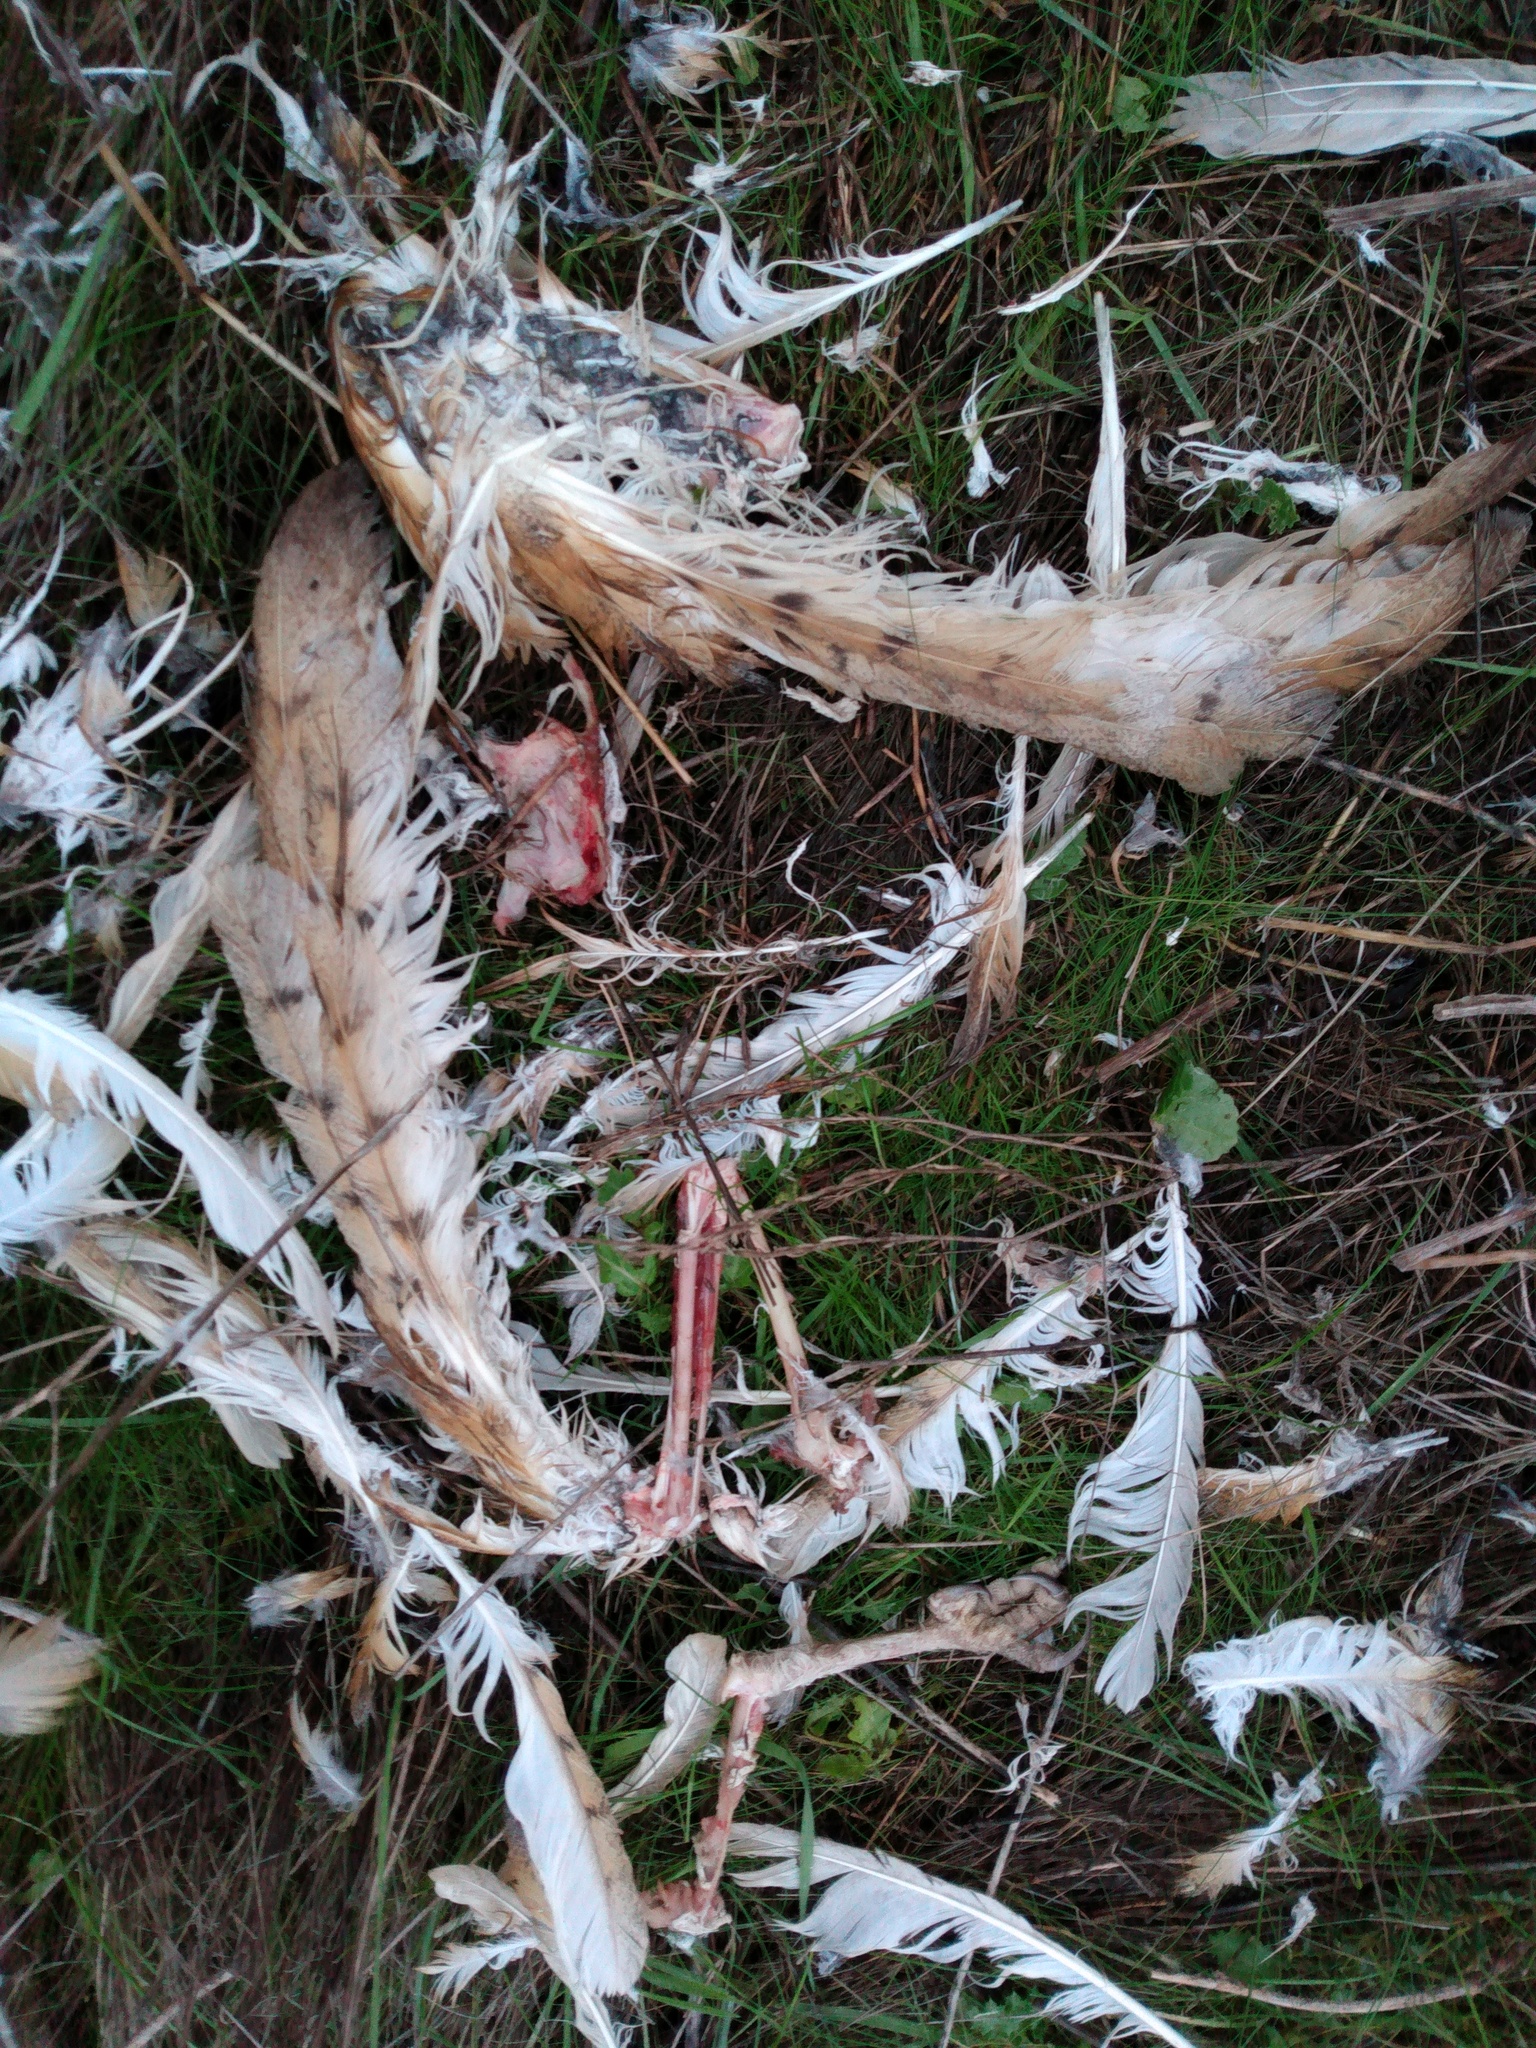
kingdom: Animalia
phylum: Chordata
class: Aves
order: Strigiformes
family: Tytonidae
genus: Tyto
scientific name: Tyto alba
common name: Barn owl
